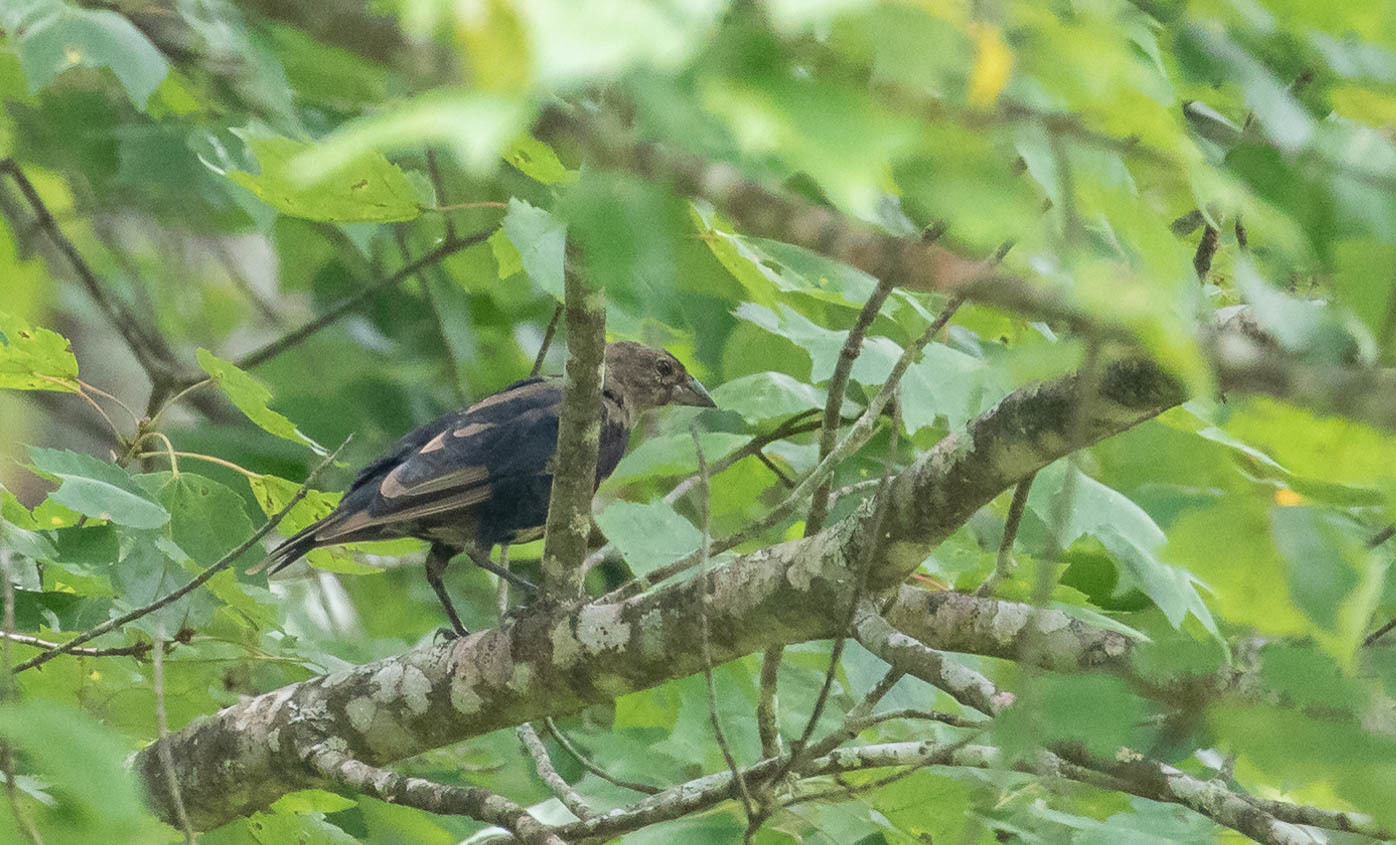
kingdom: Animalia
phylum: Chordata
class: Aves
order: Passeriformes
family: Icteridae
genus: Molothrus
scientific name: Molothrus ater
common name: Brown-headed cowbird
